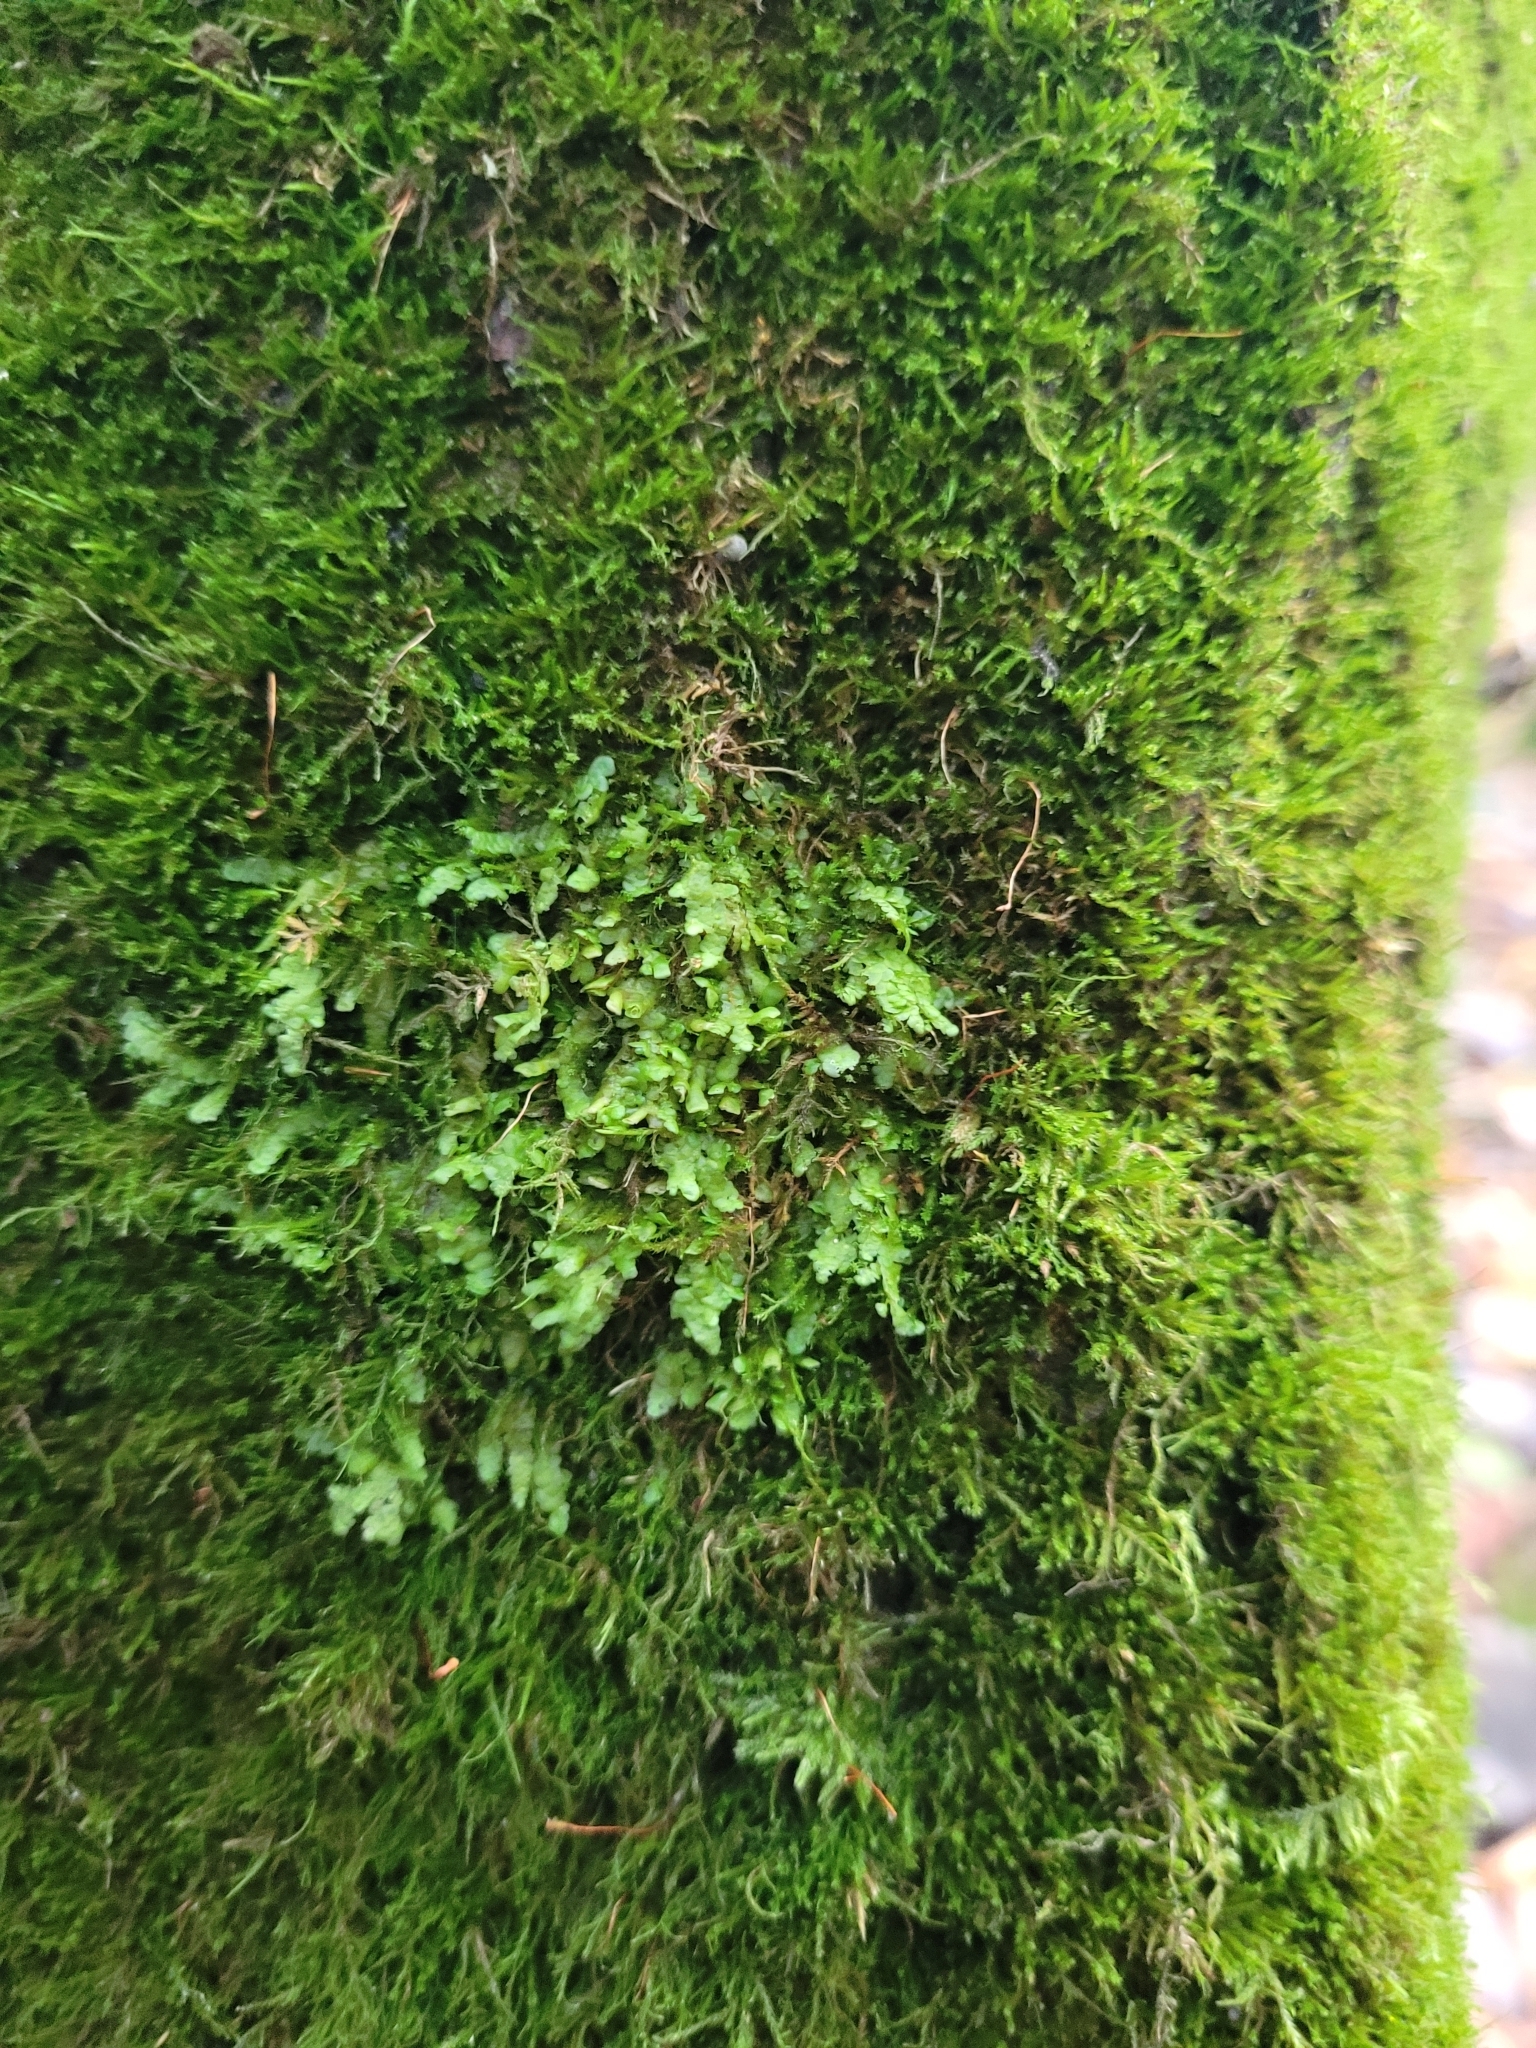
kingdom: Plantae
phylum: Marchantiophyta
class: Jungermanniopsida
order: Porellales
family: Radulaceae
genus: Radula
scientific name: Radula complanata
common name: Flat-leaved scalewort
